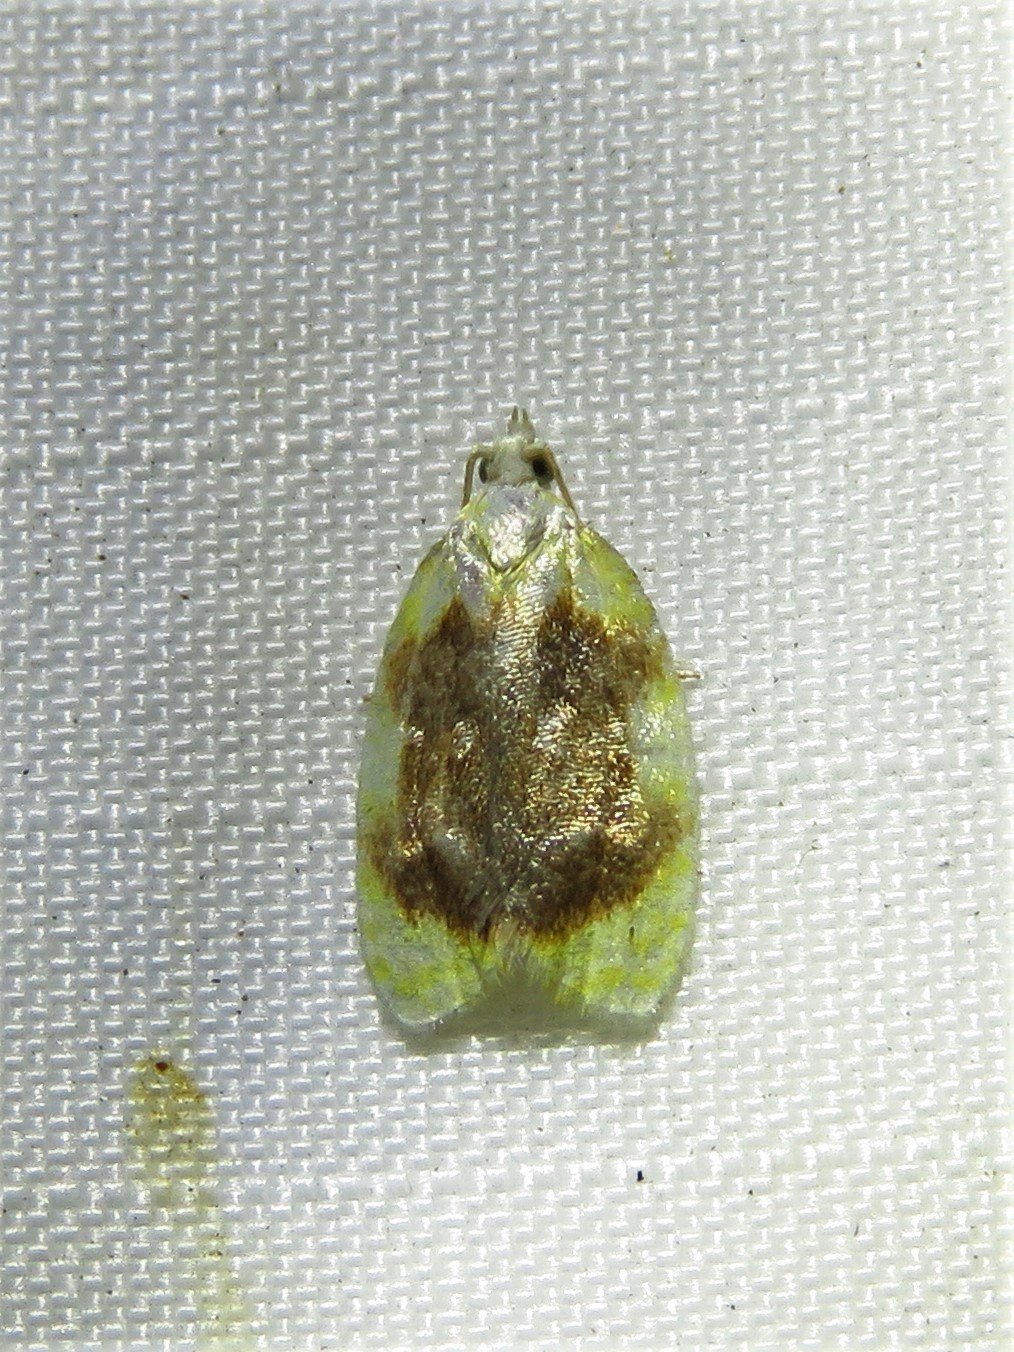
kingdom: Animalia
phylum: Arthropoda
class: Insecta
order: Lepidoptera
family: Tortricidae
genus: Acleris
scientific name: Acleris semipurpurana
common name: Oak leaftier moth
